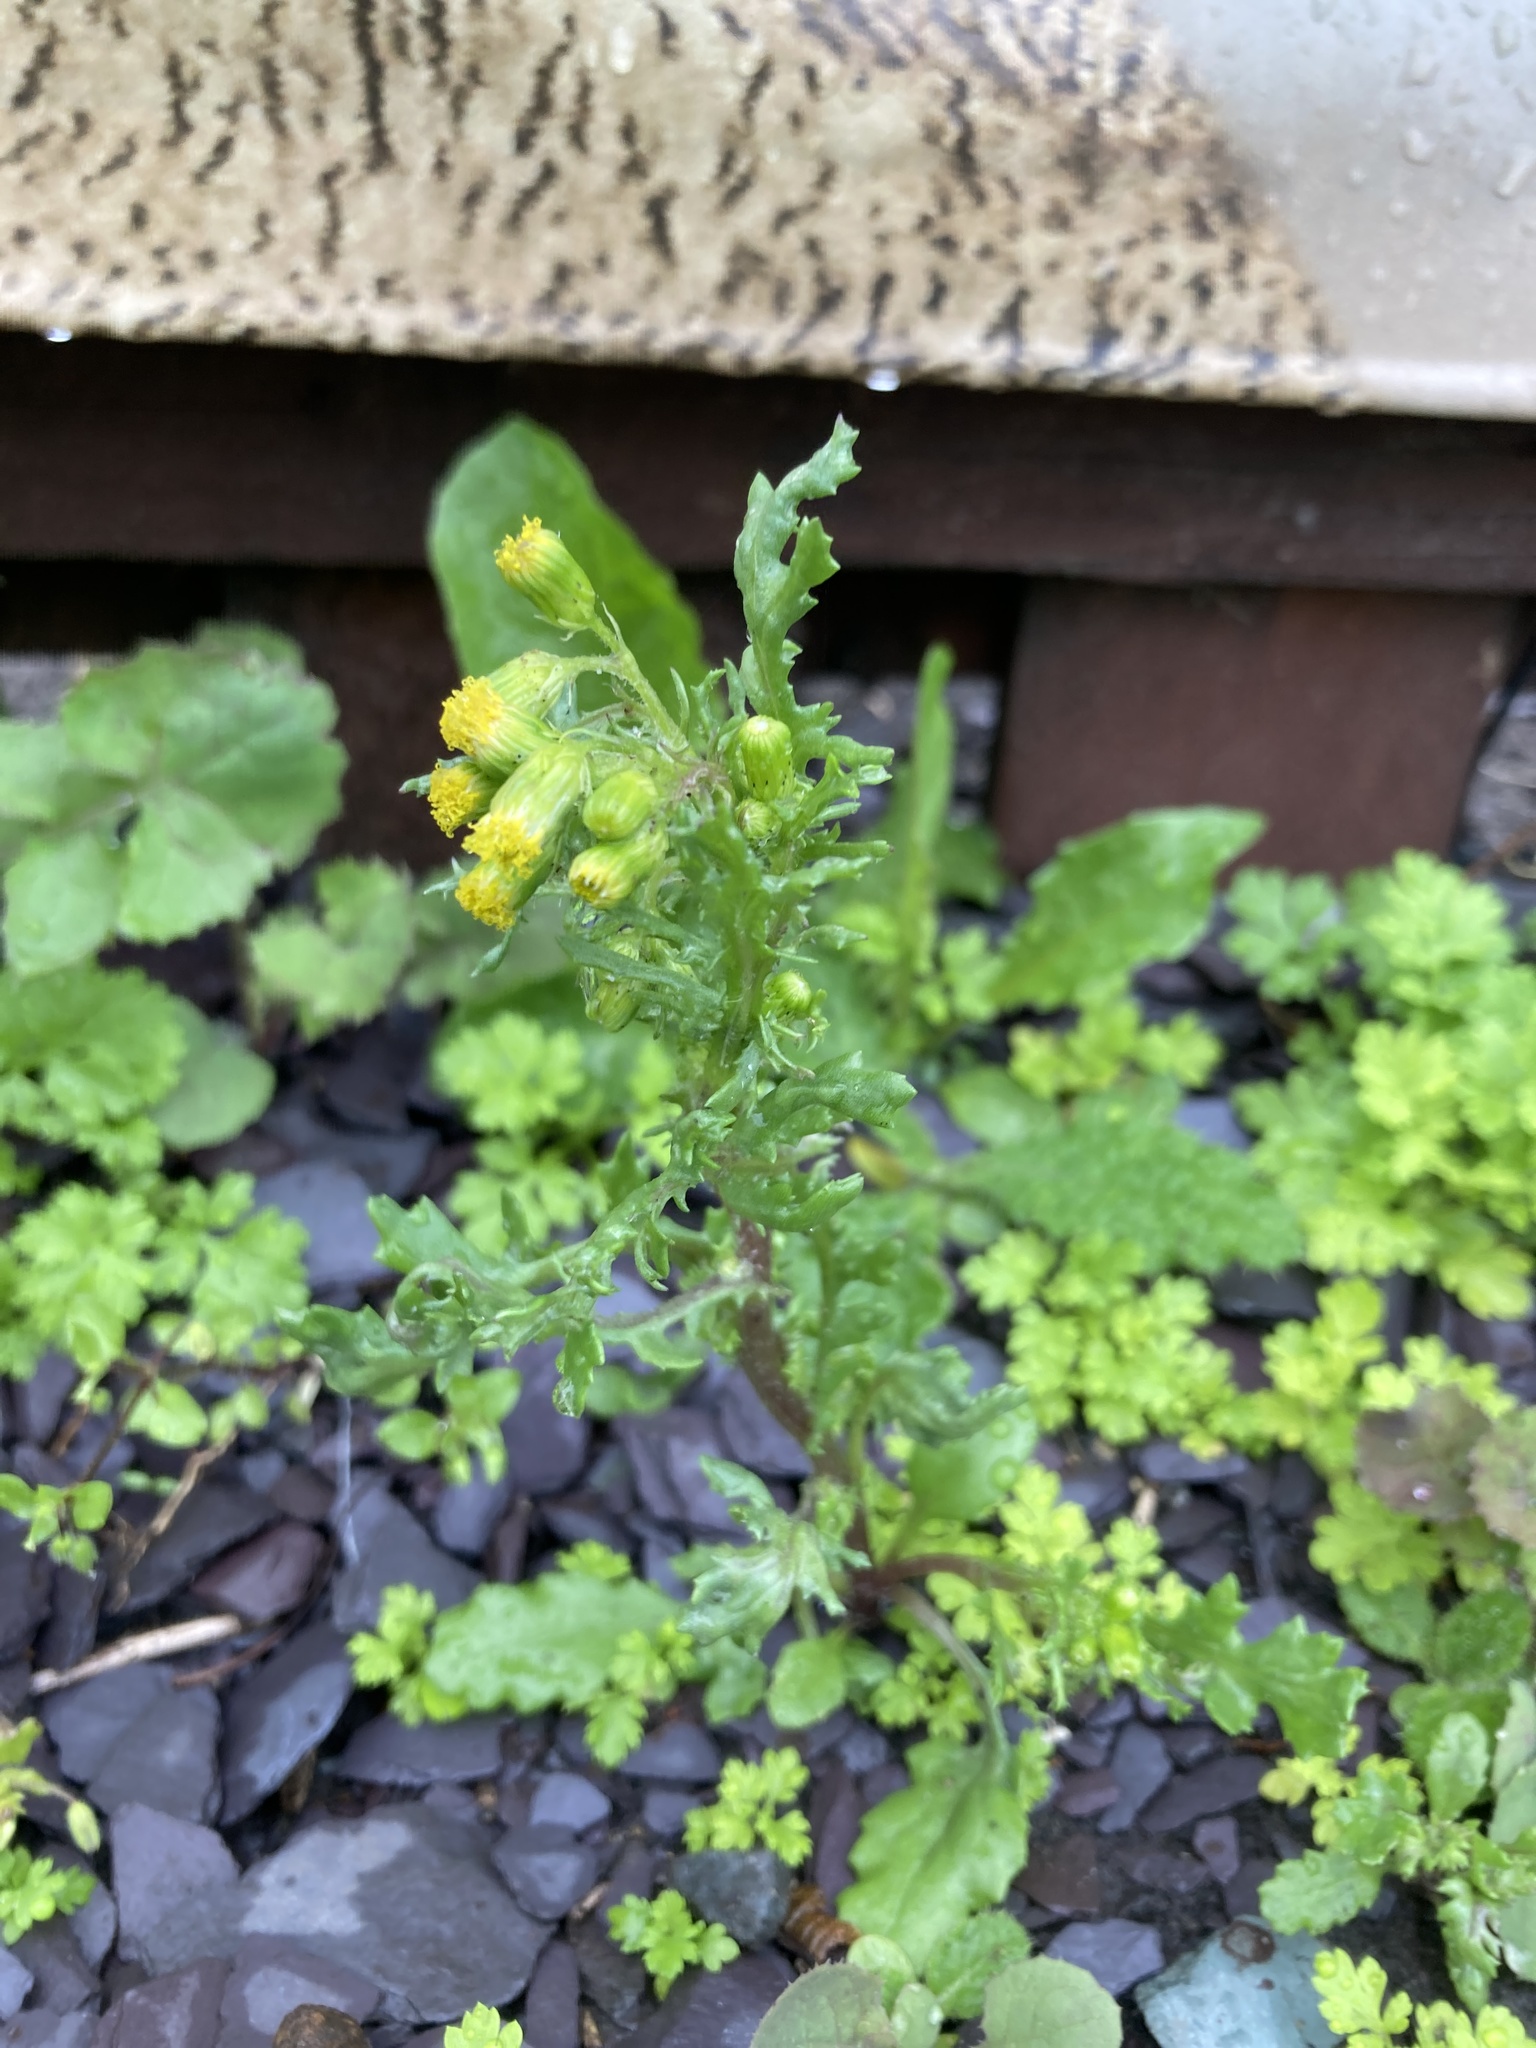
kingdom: Plantae
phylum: Tracheophyta
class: Magnoliopsida
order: Asterales
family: Asteraceae
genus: Senecio
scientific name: Senecio vulgaris
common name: Old-man-in-the-spring
